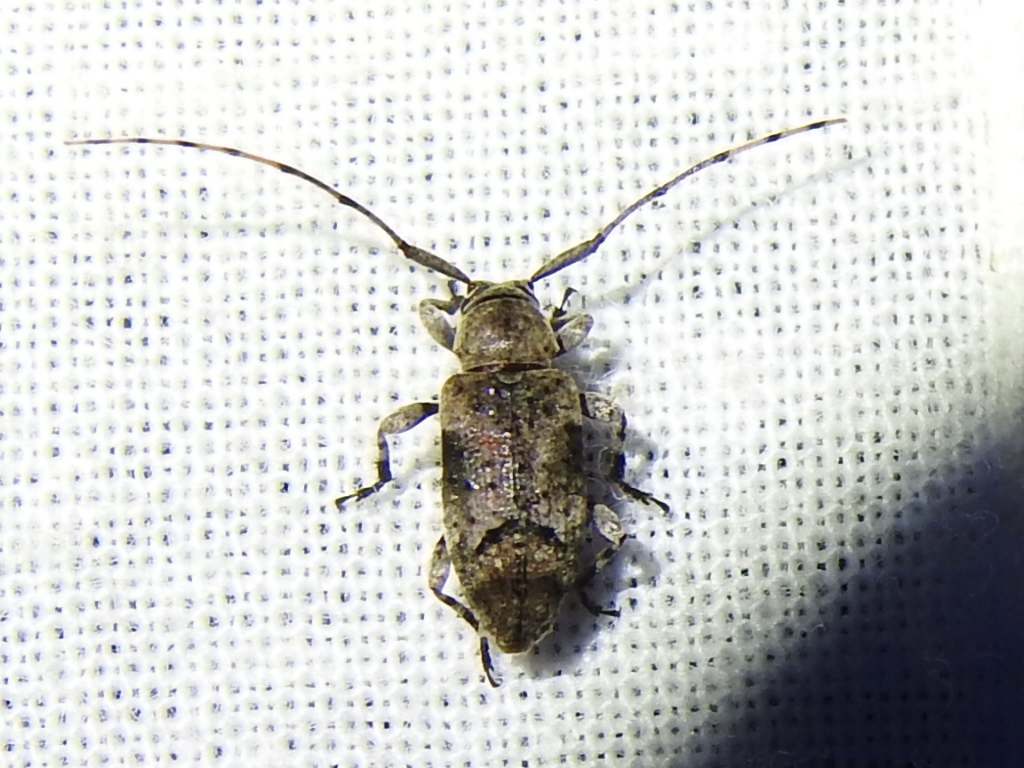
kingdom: Animalia
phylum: Arthropoda
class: Insecta
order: Coleoptera
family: Cerambycidae
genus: Sternidius
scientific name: Sternidius mimeticus
